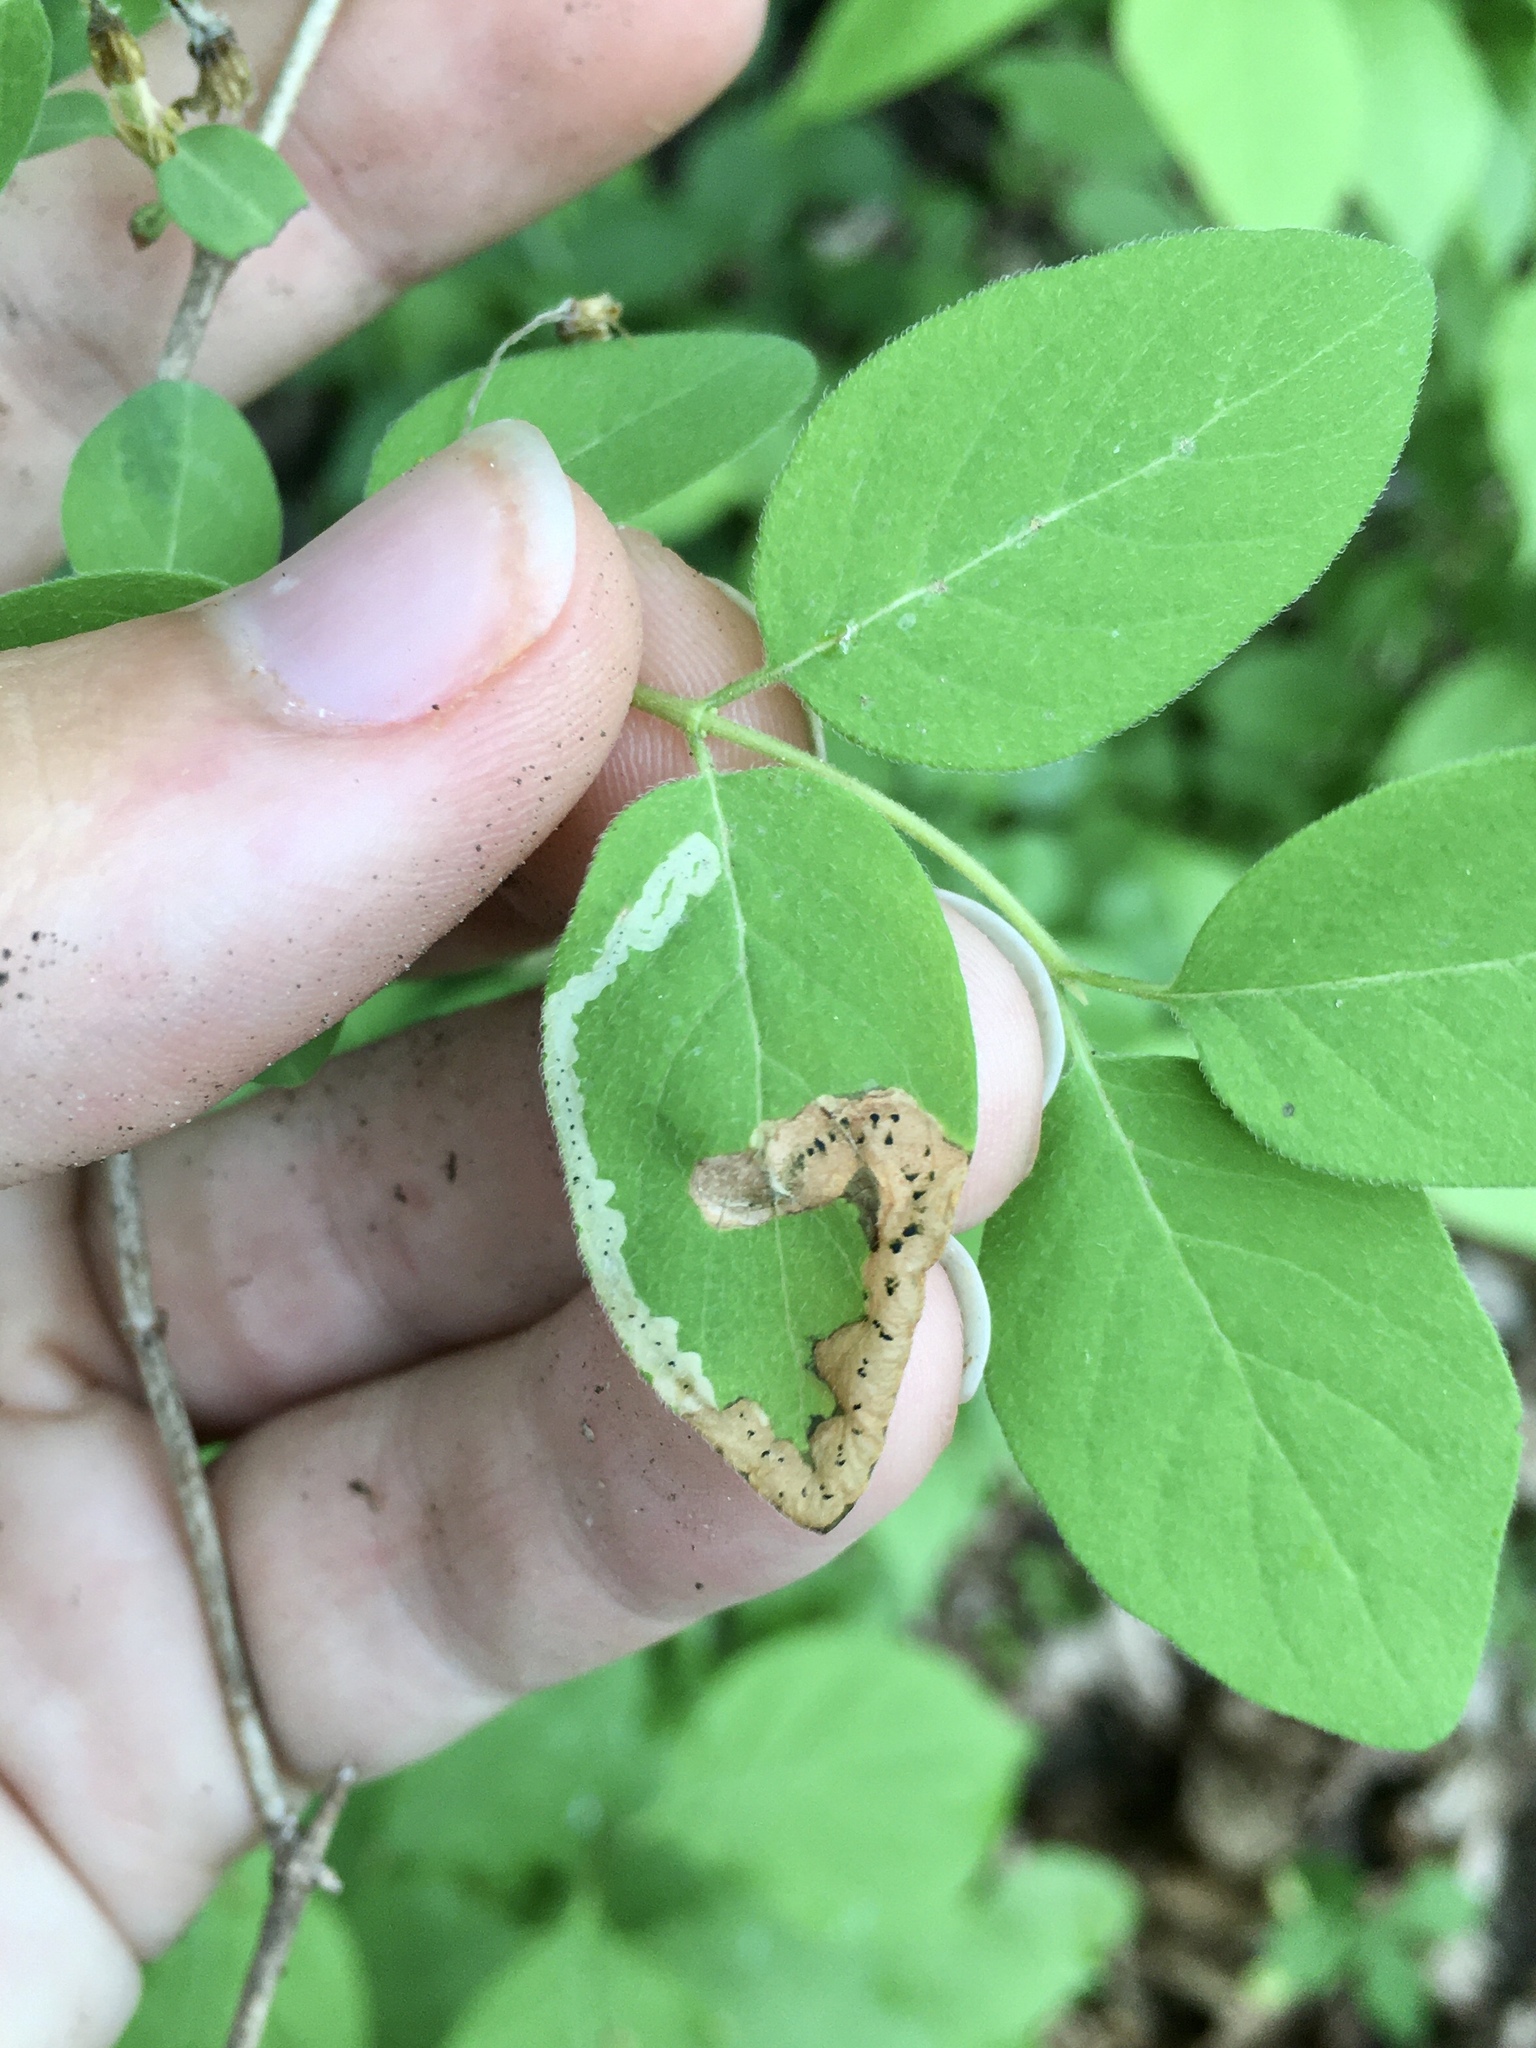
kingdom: Animalia
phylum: Arthropoda
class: Insecta
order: Diptera
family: Agromyzidae
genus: Aulagromyza
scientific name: Aulagromyza cornigera
